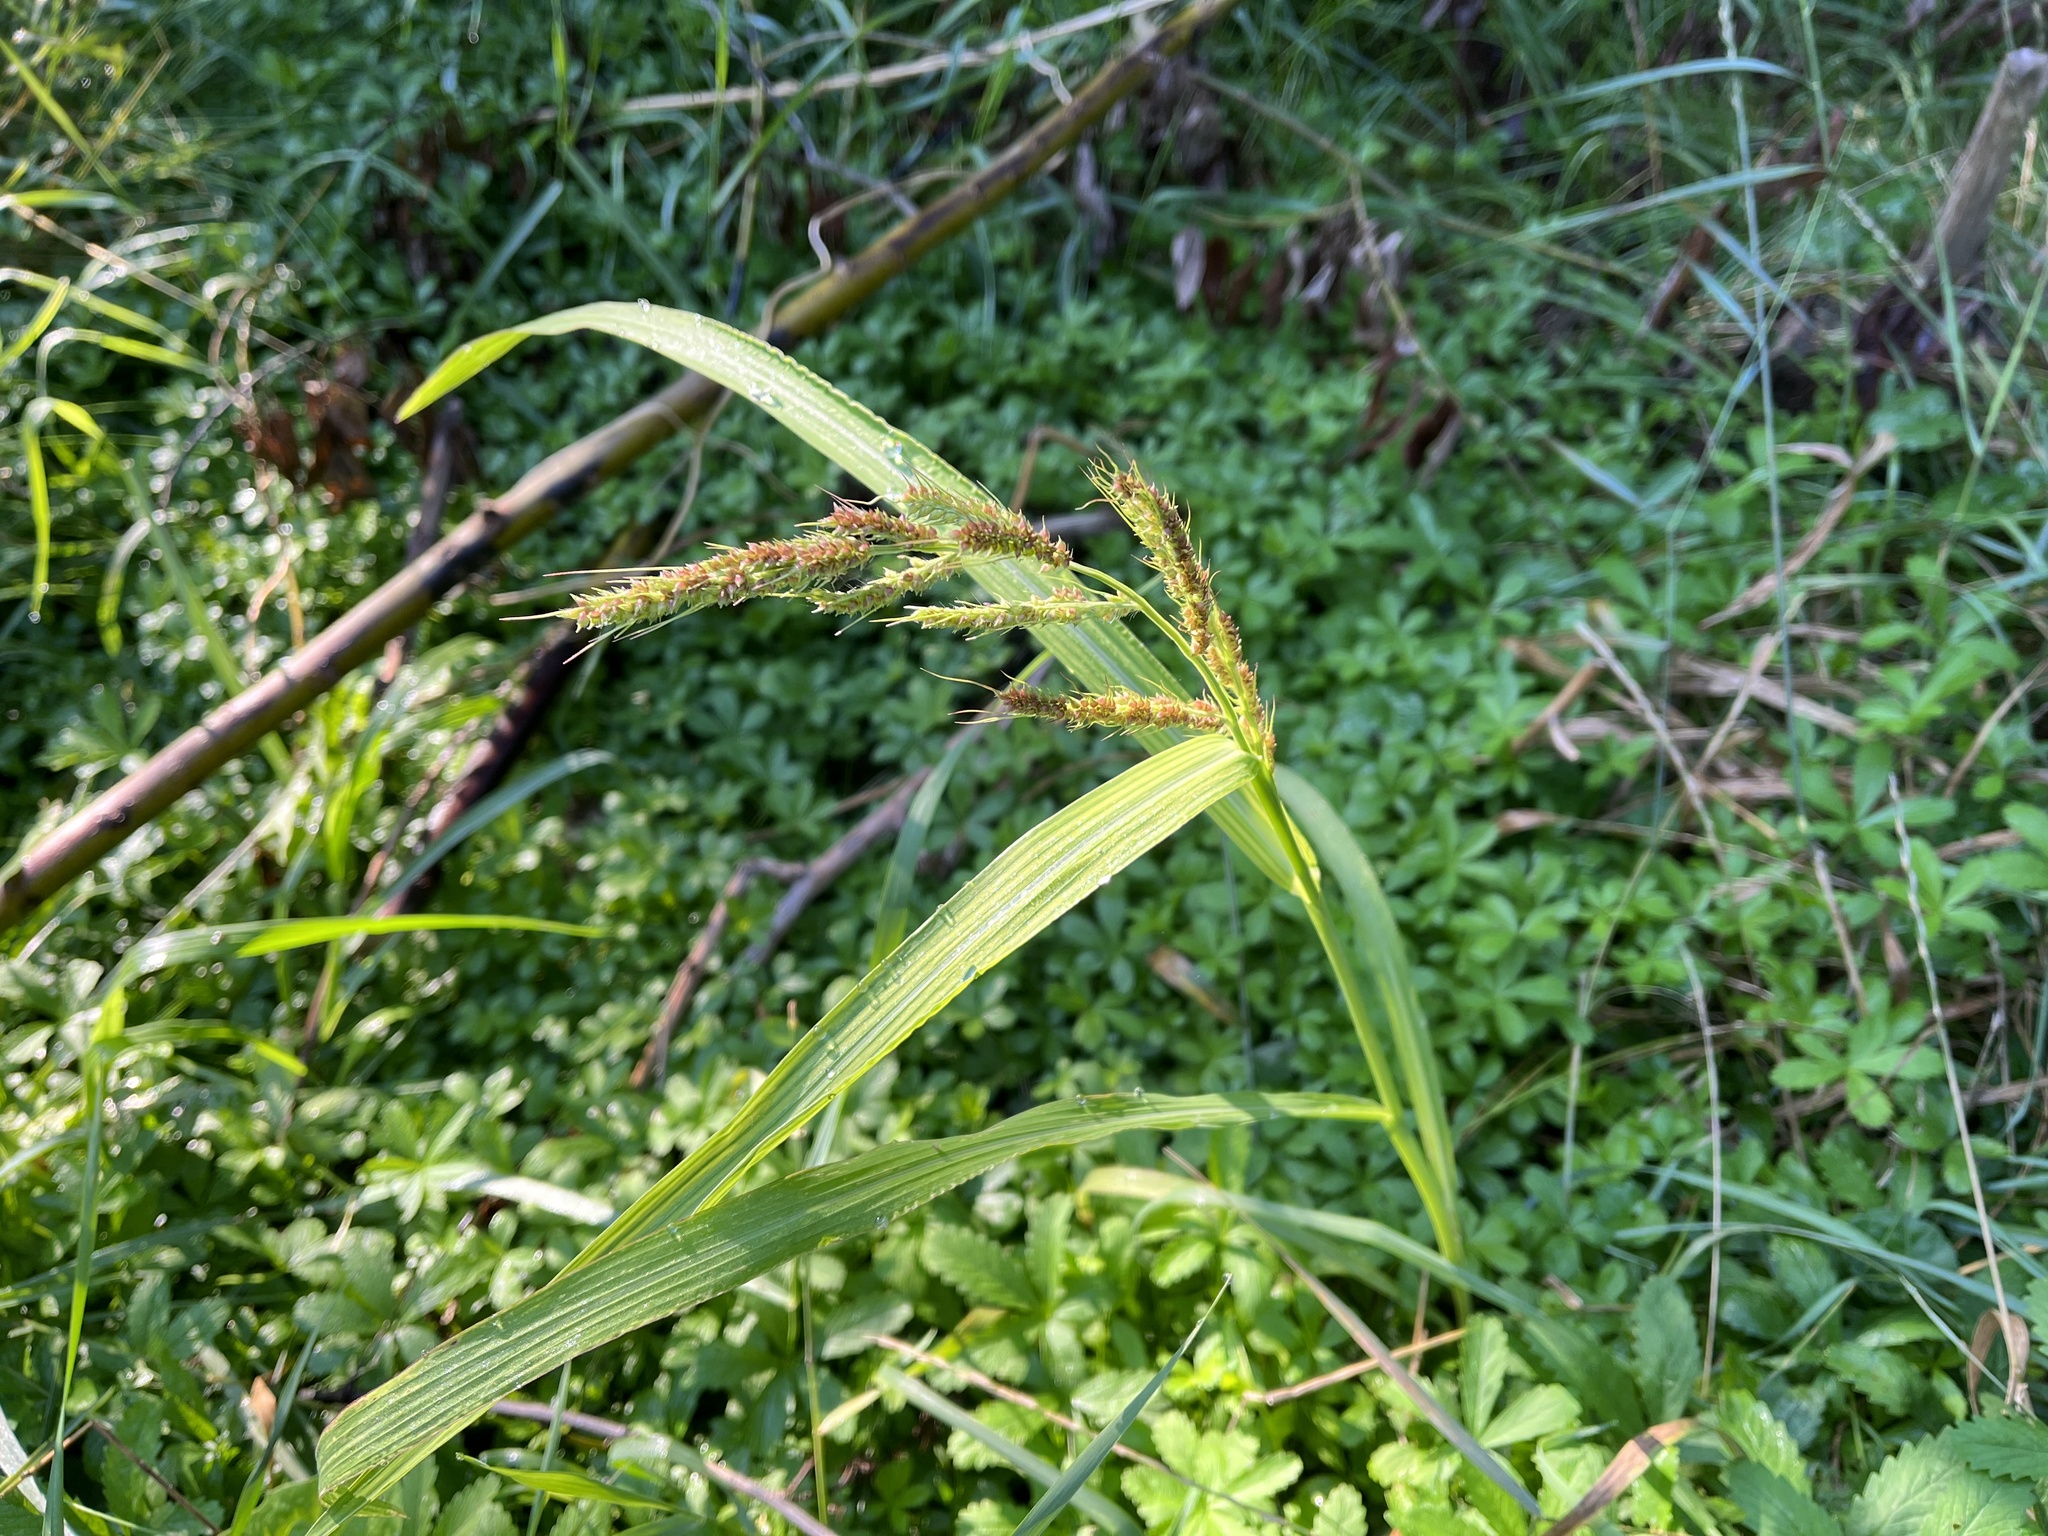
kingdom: Plantae
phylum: Tracheophyta
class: Liliopsida
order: Poales
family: Poaceae
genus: Echinochloa
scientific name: Echinochloa crus-galli
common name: Cockspur
